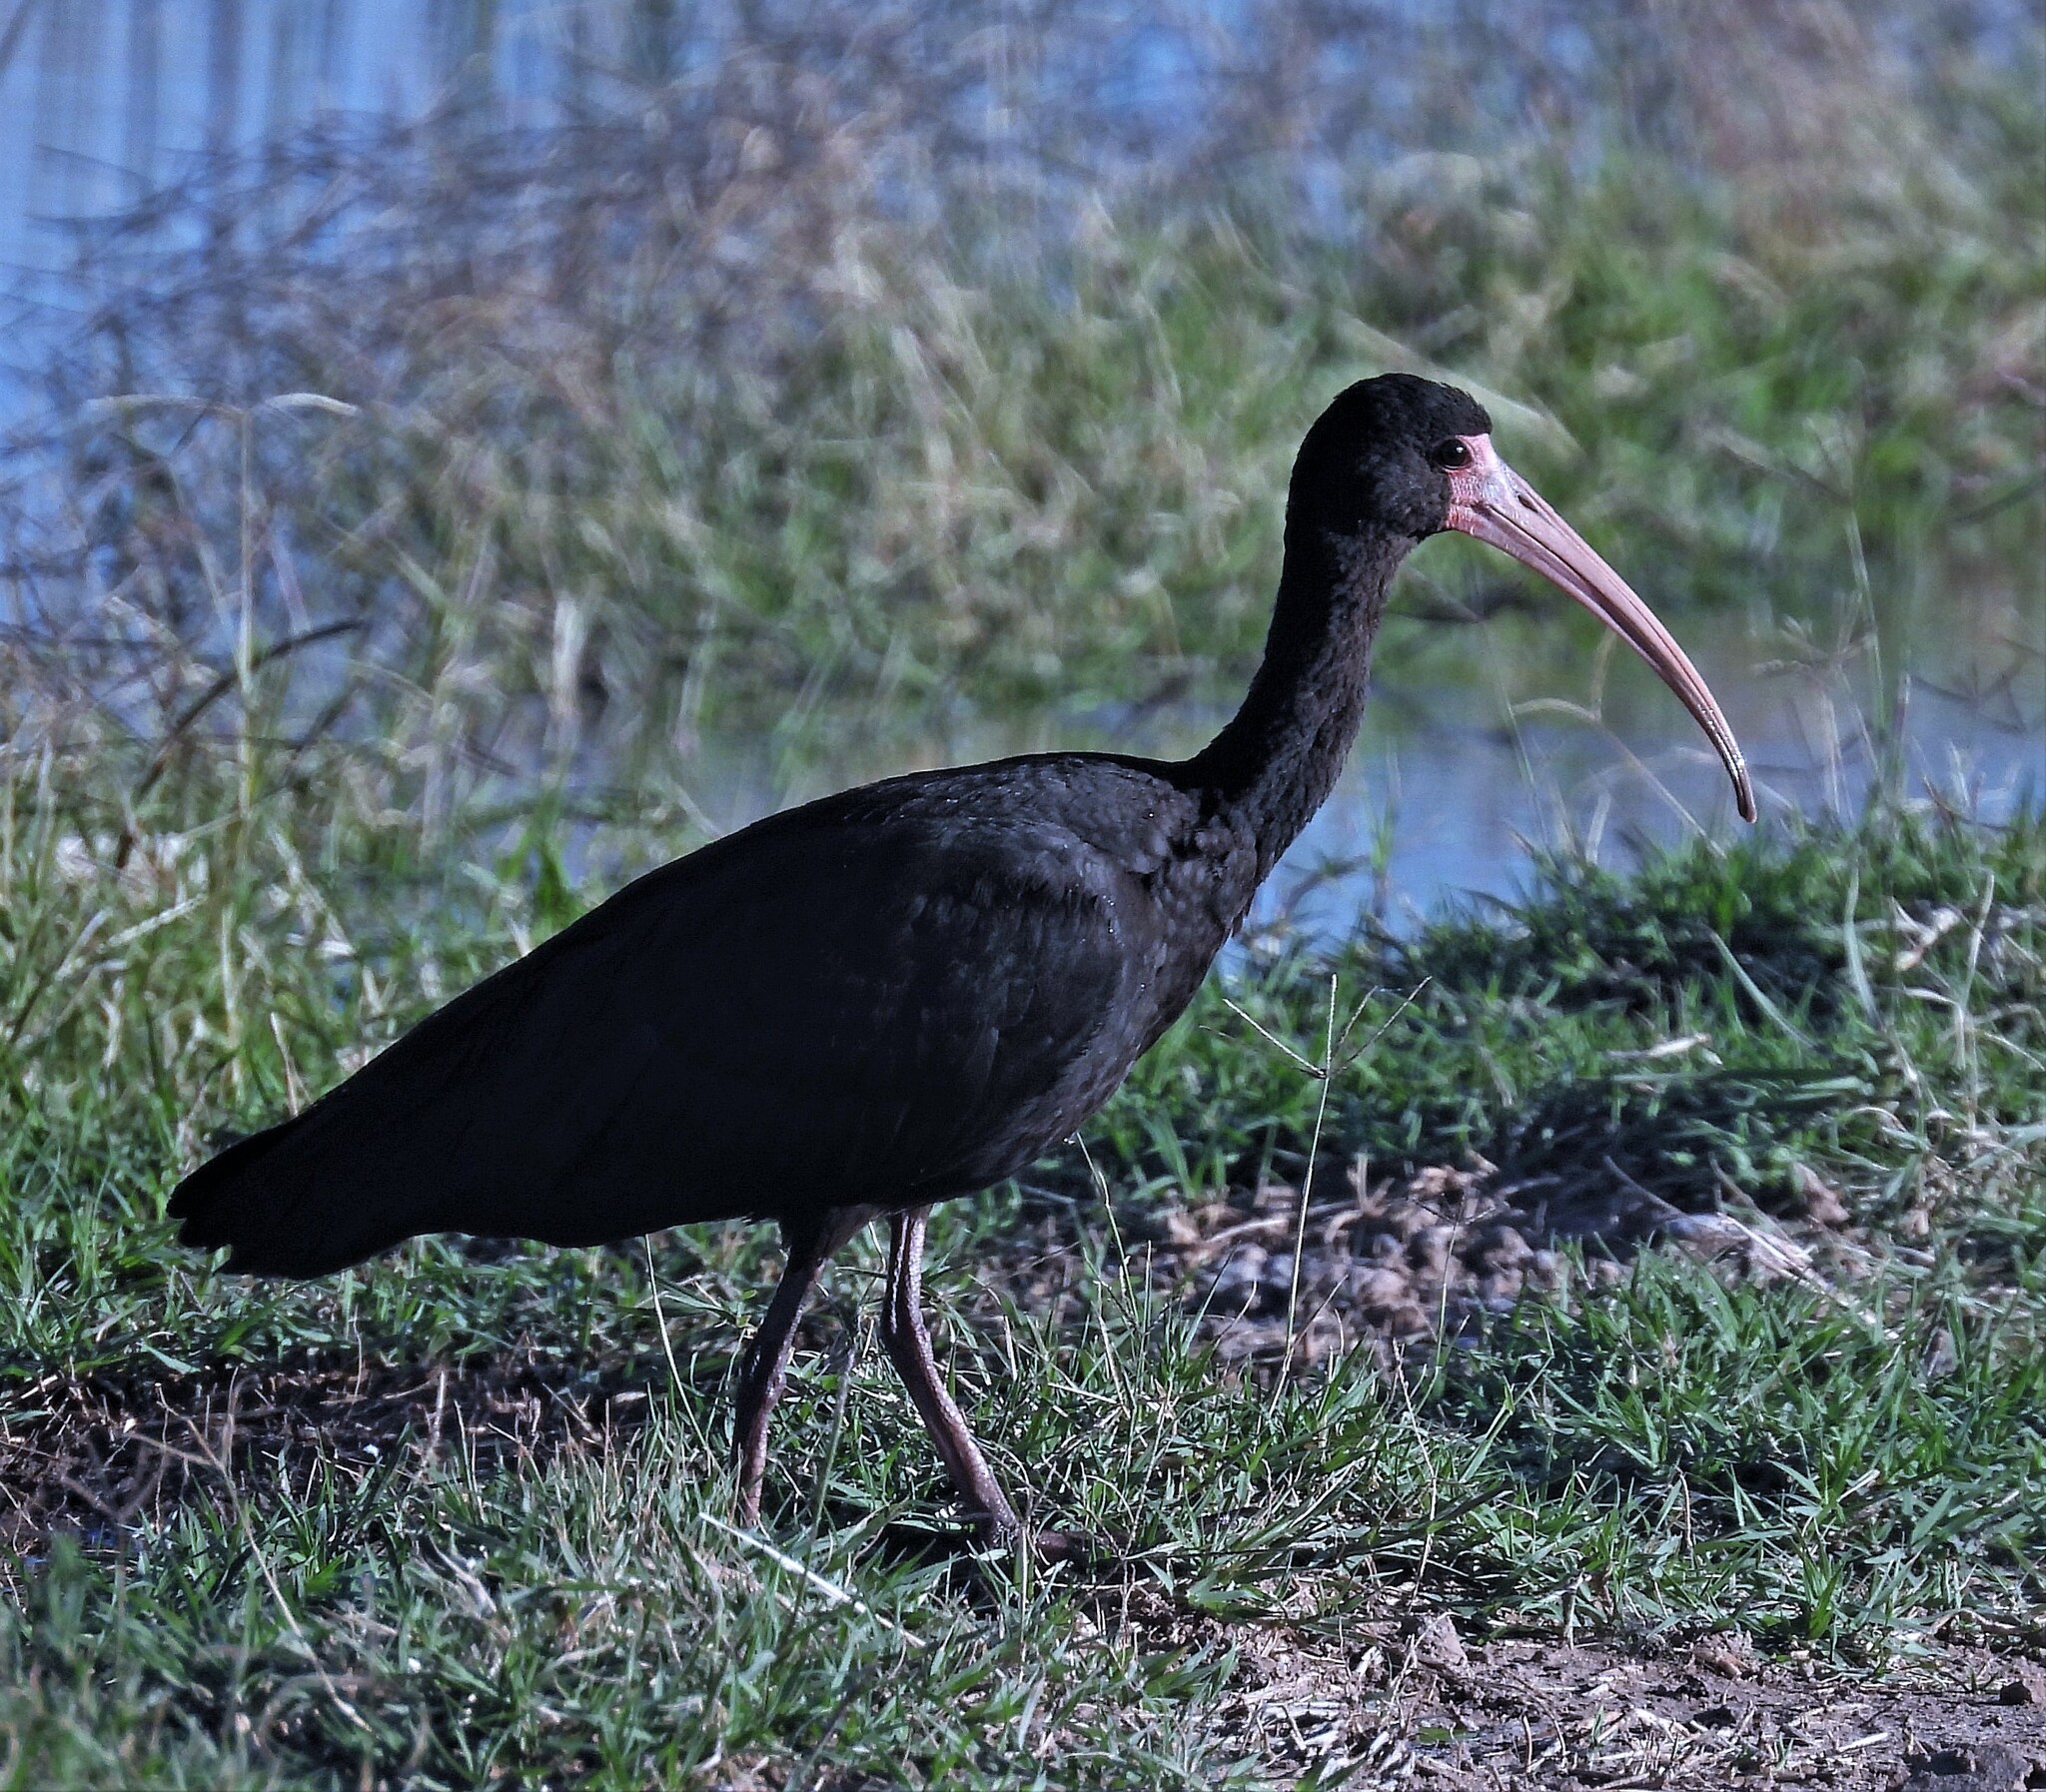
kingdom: Animalia
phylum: Chordata
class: Aves
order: Pelecaniformes
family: Threskiornithidae
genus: Phimosus
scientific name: Phimosus infuscatus
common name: Bare-faced ibis
